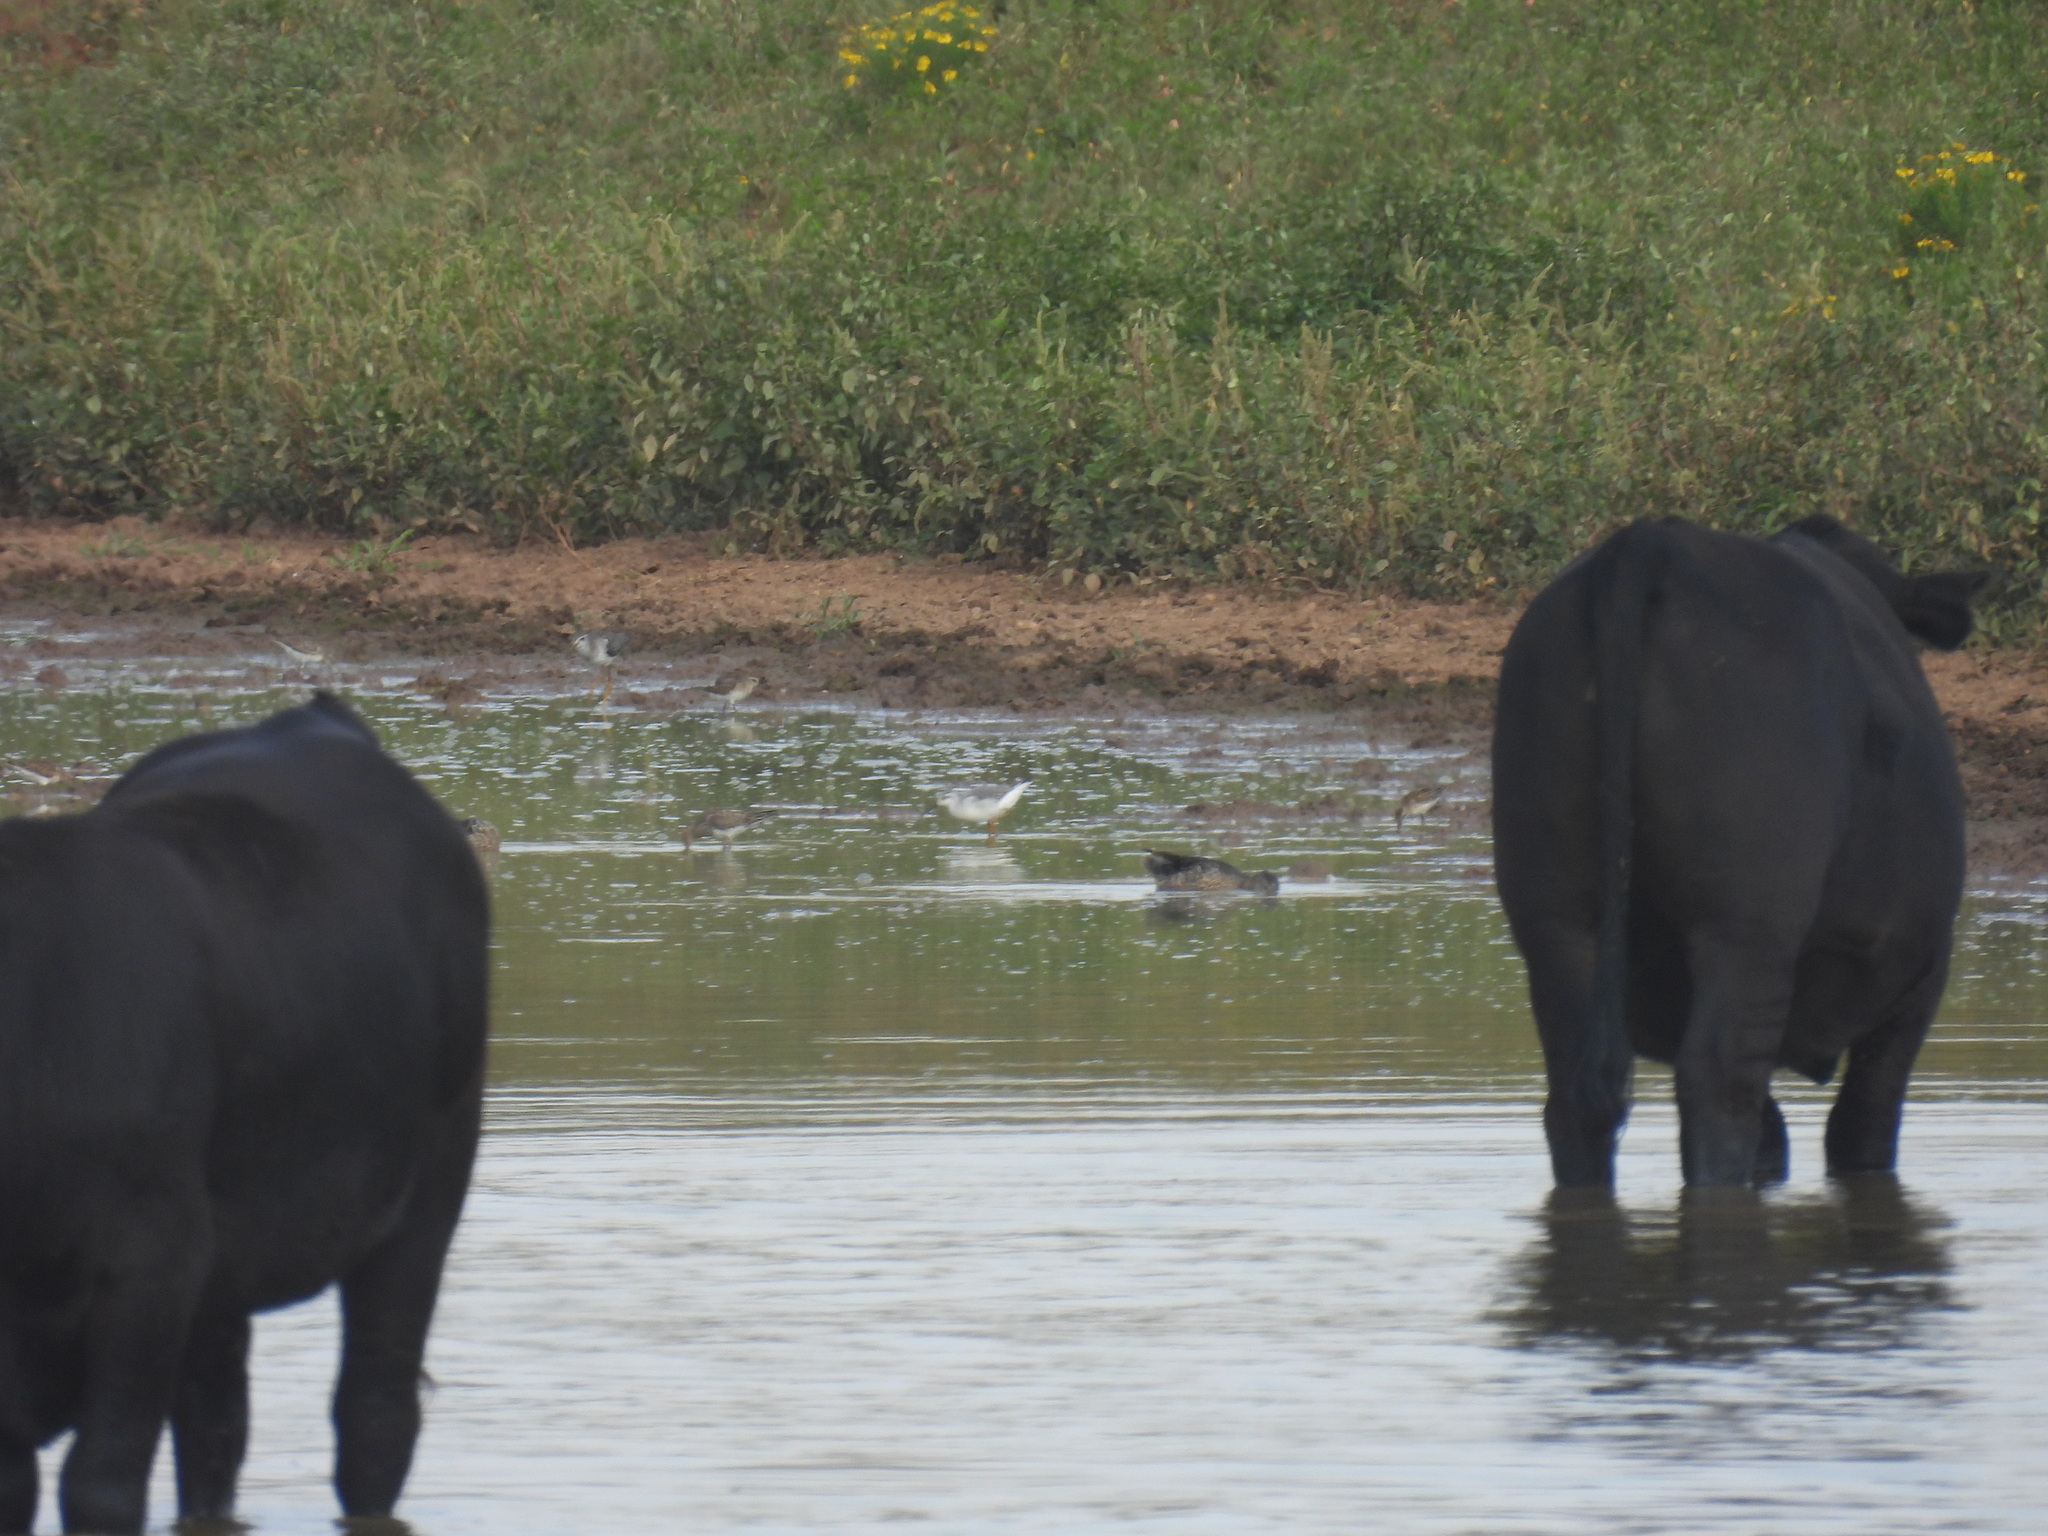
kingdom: Animalia
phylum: Chordata
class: Aves
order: Charadriiformes
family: Scolopacidae
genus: Phalaropus
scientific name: Phalaropus tricolor
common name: Wilson's phalarope
